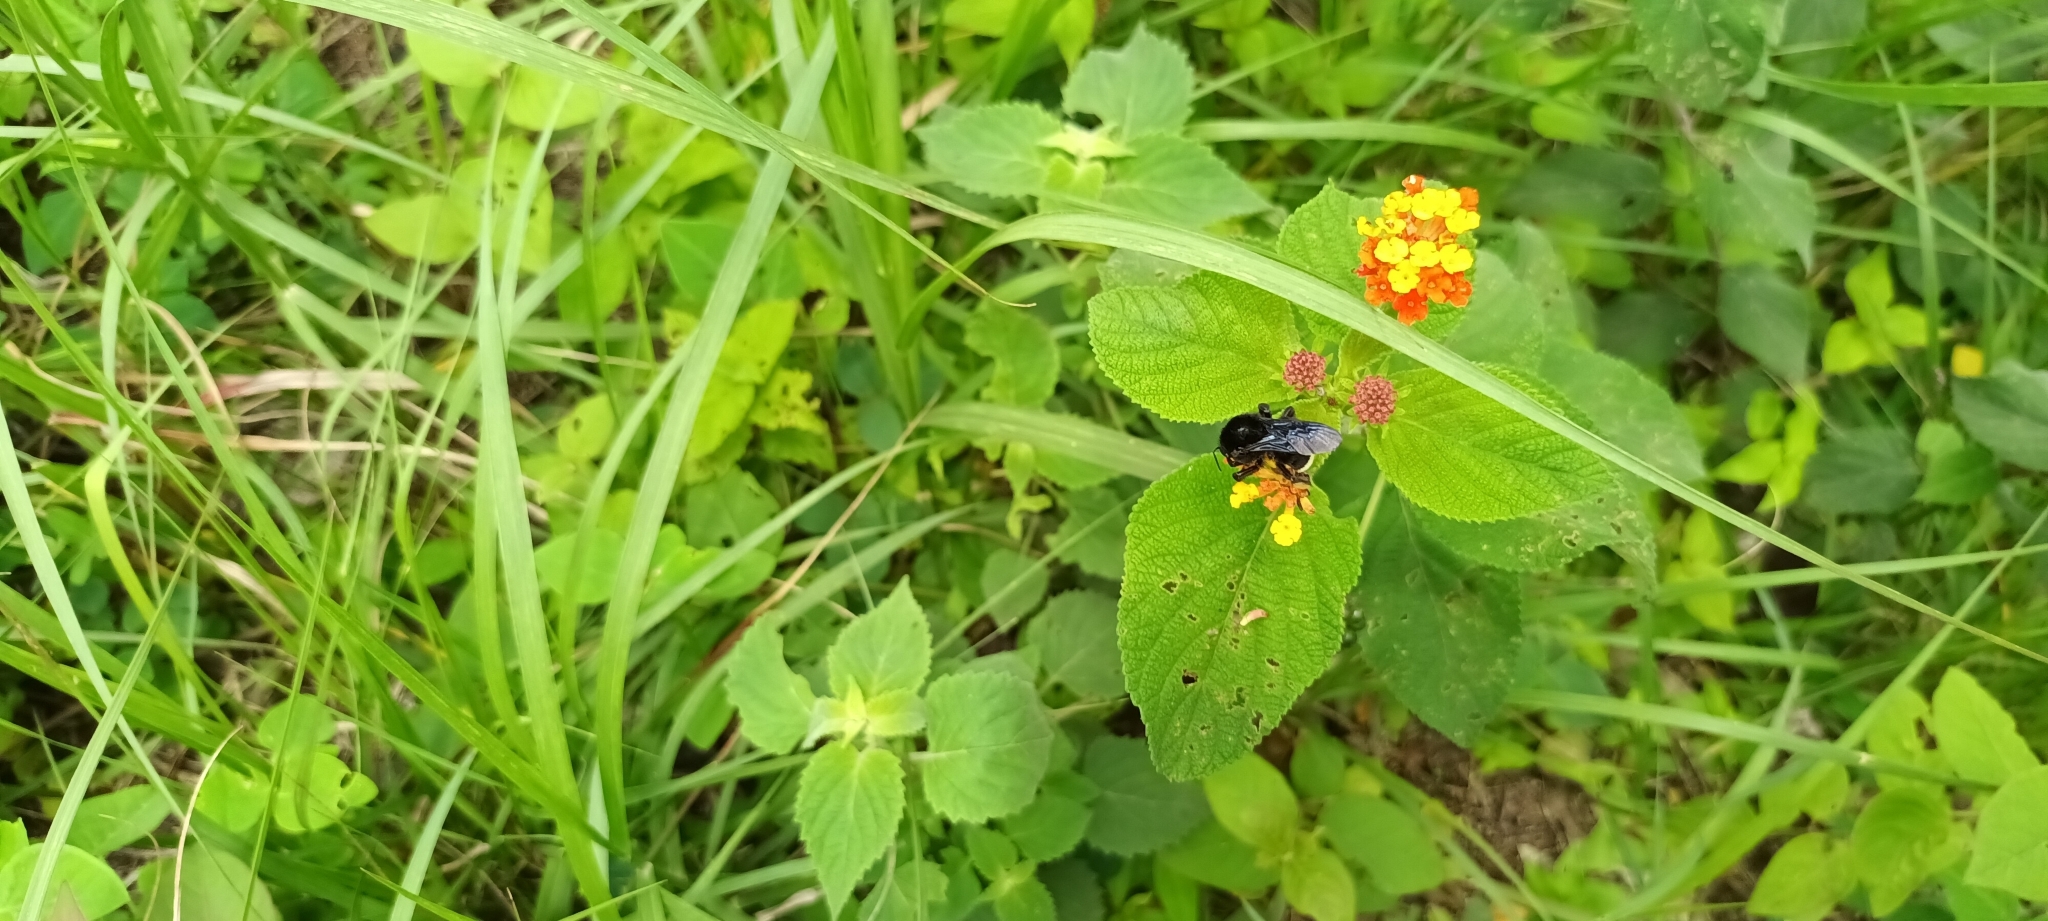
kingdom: Animalia
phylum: Arthropoda
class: Insecta
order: Hymenoptera
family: Apidae
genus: Bombus
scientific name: Bombus mexicanus
